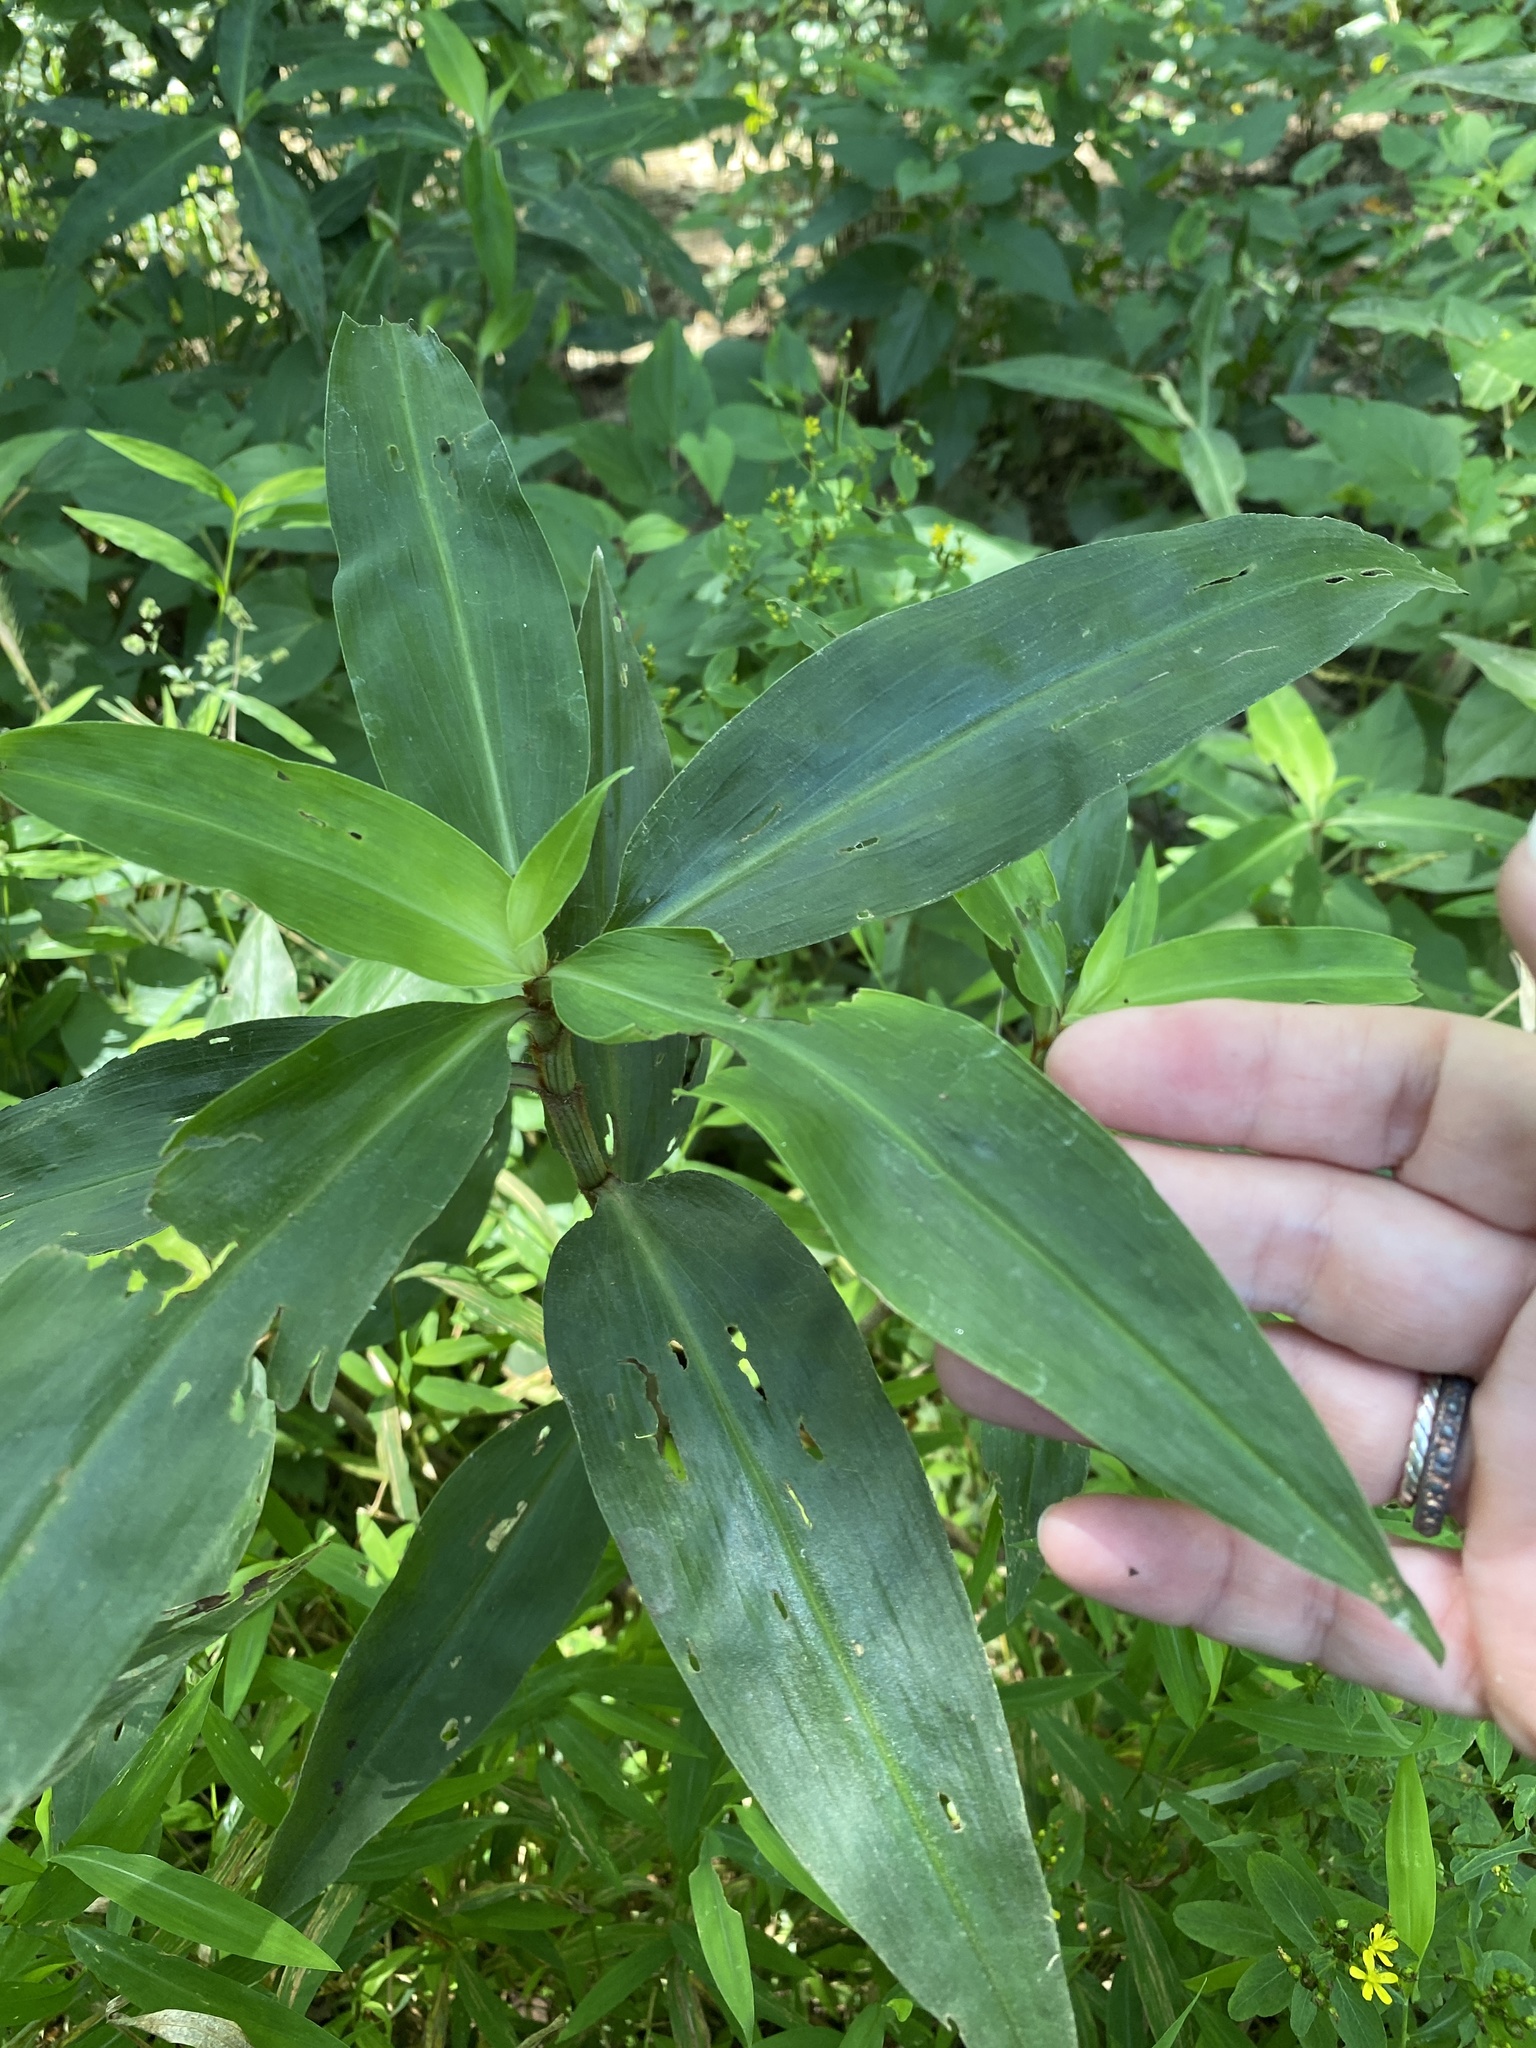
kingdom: Plantae
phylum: Tracheophyta
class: Liliopsida
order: Commelinales
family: Commelinaceae
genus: Commelina
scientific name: Commelina virginica
